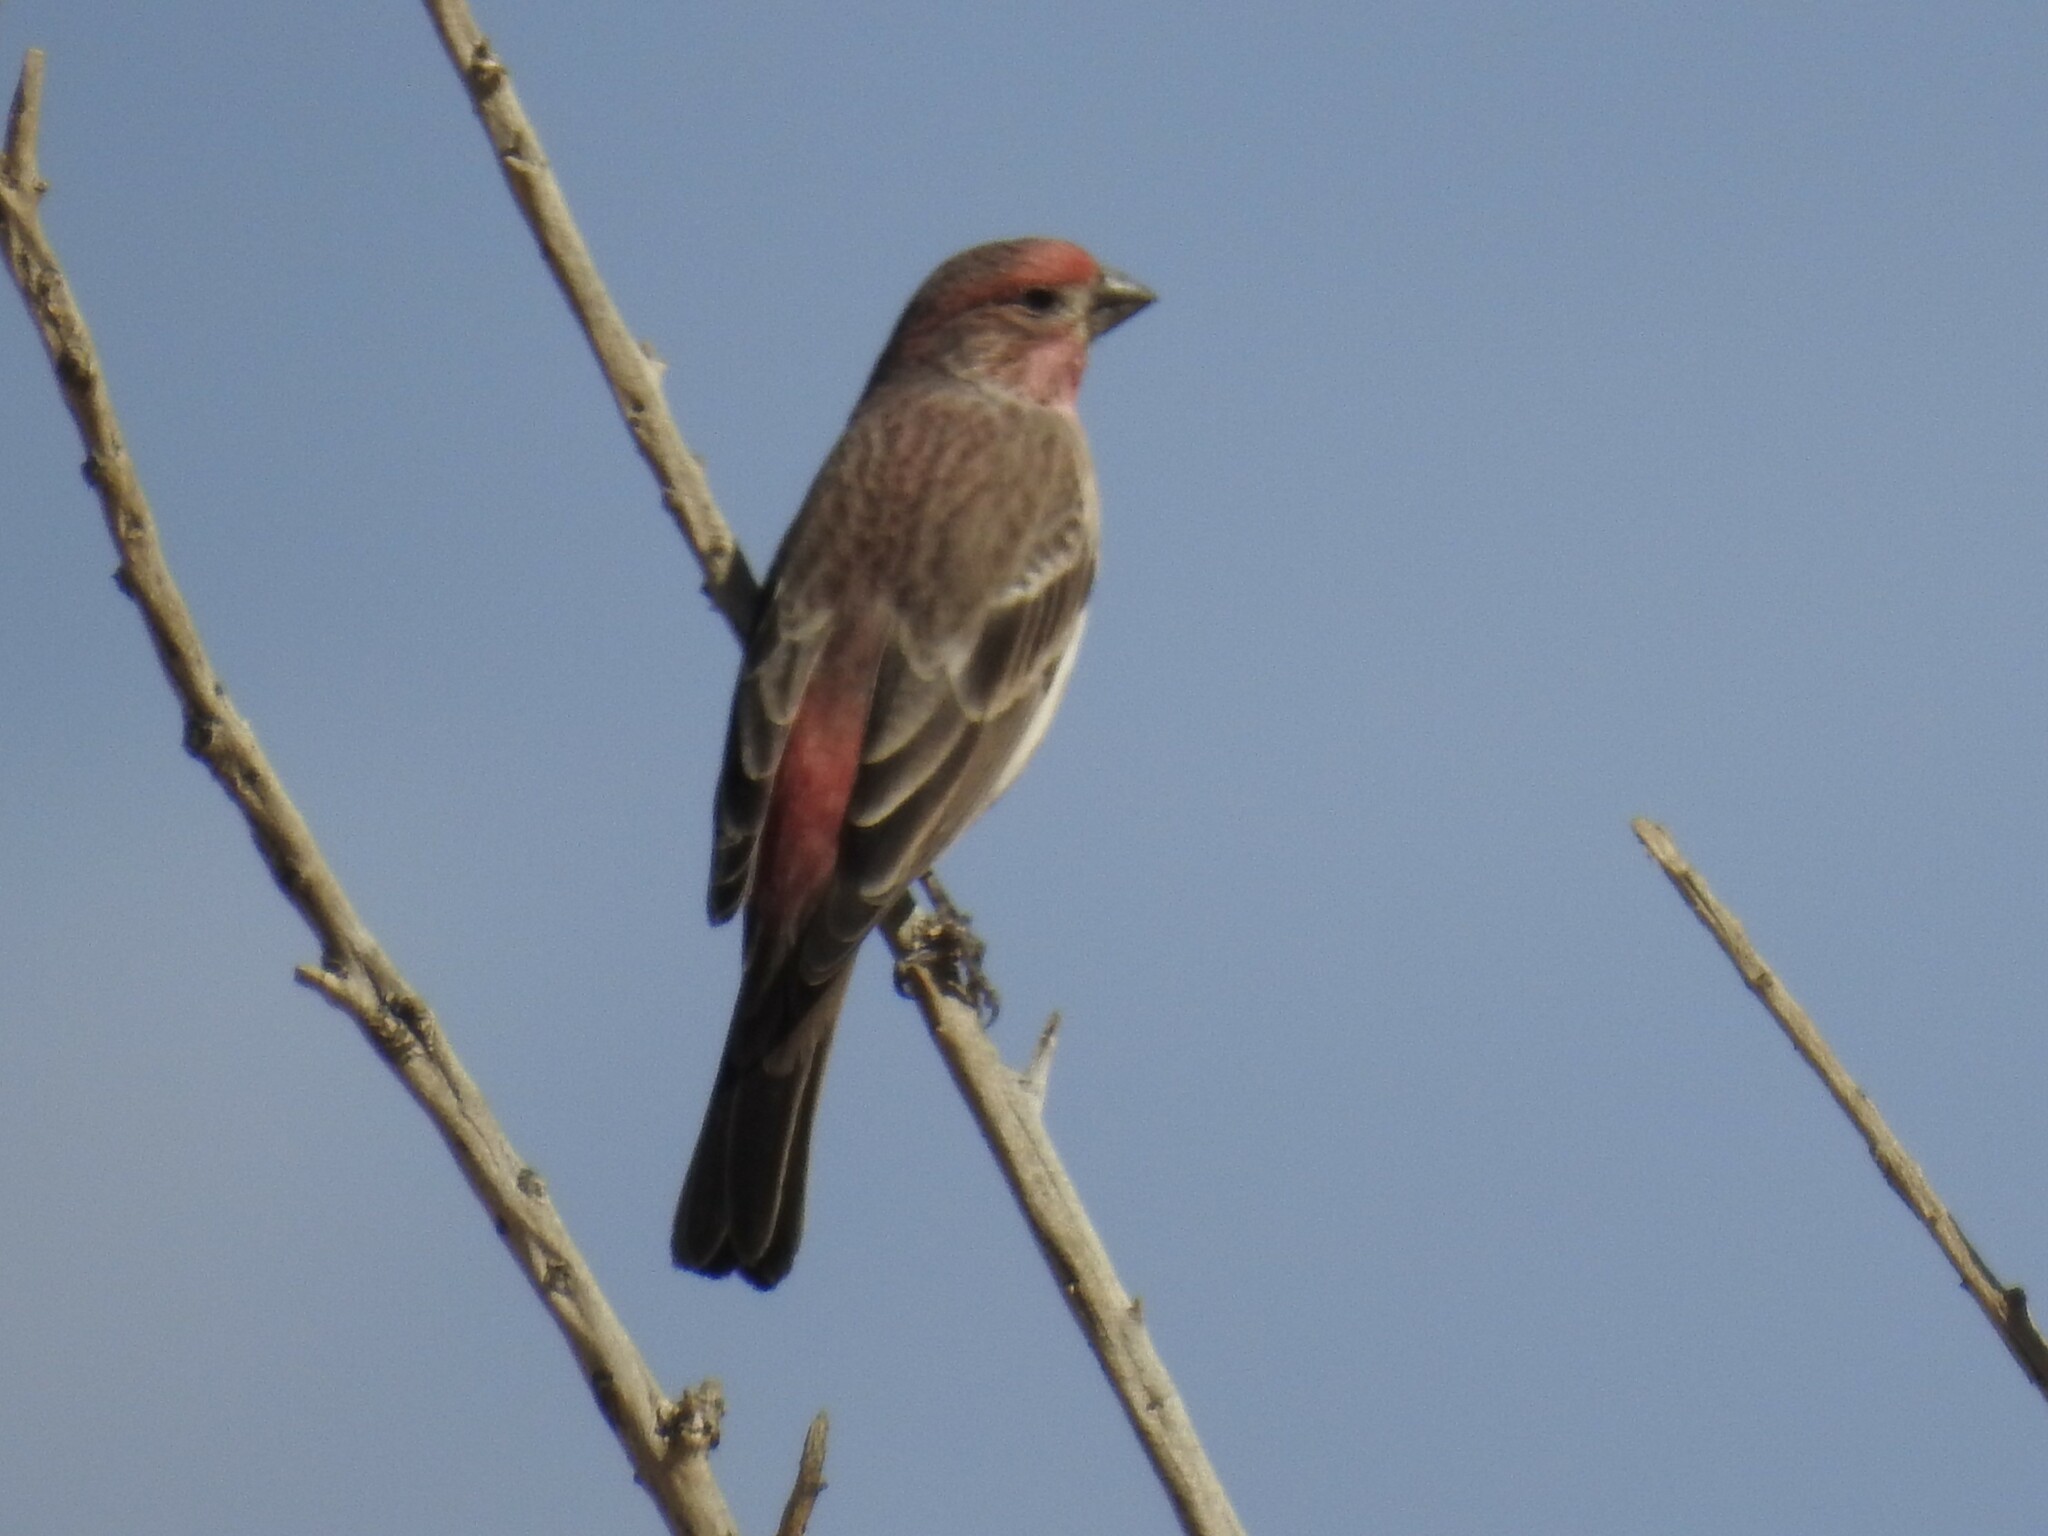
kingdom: Animalia
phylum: Chordata
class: Aves
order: Passeriformes
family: Fringillidae
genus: Haemorhous
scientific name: Haemorhous mexicanus
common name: House finch
